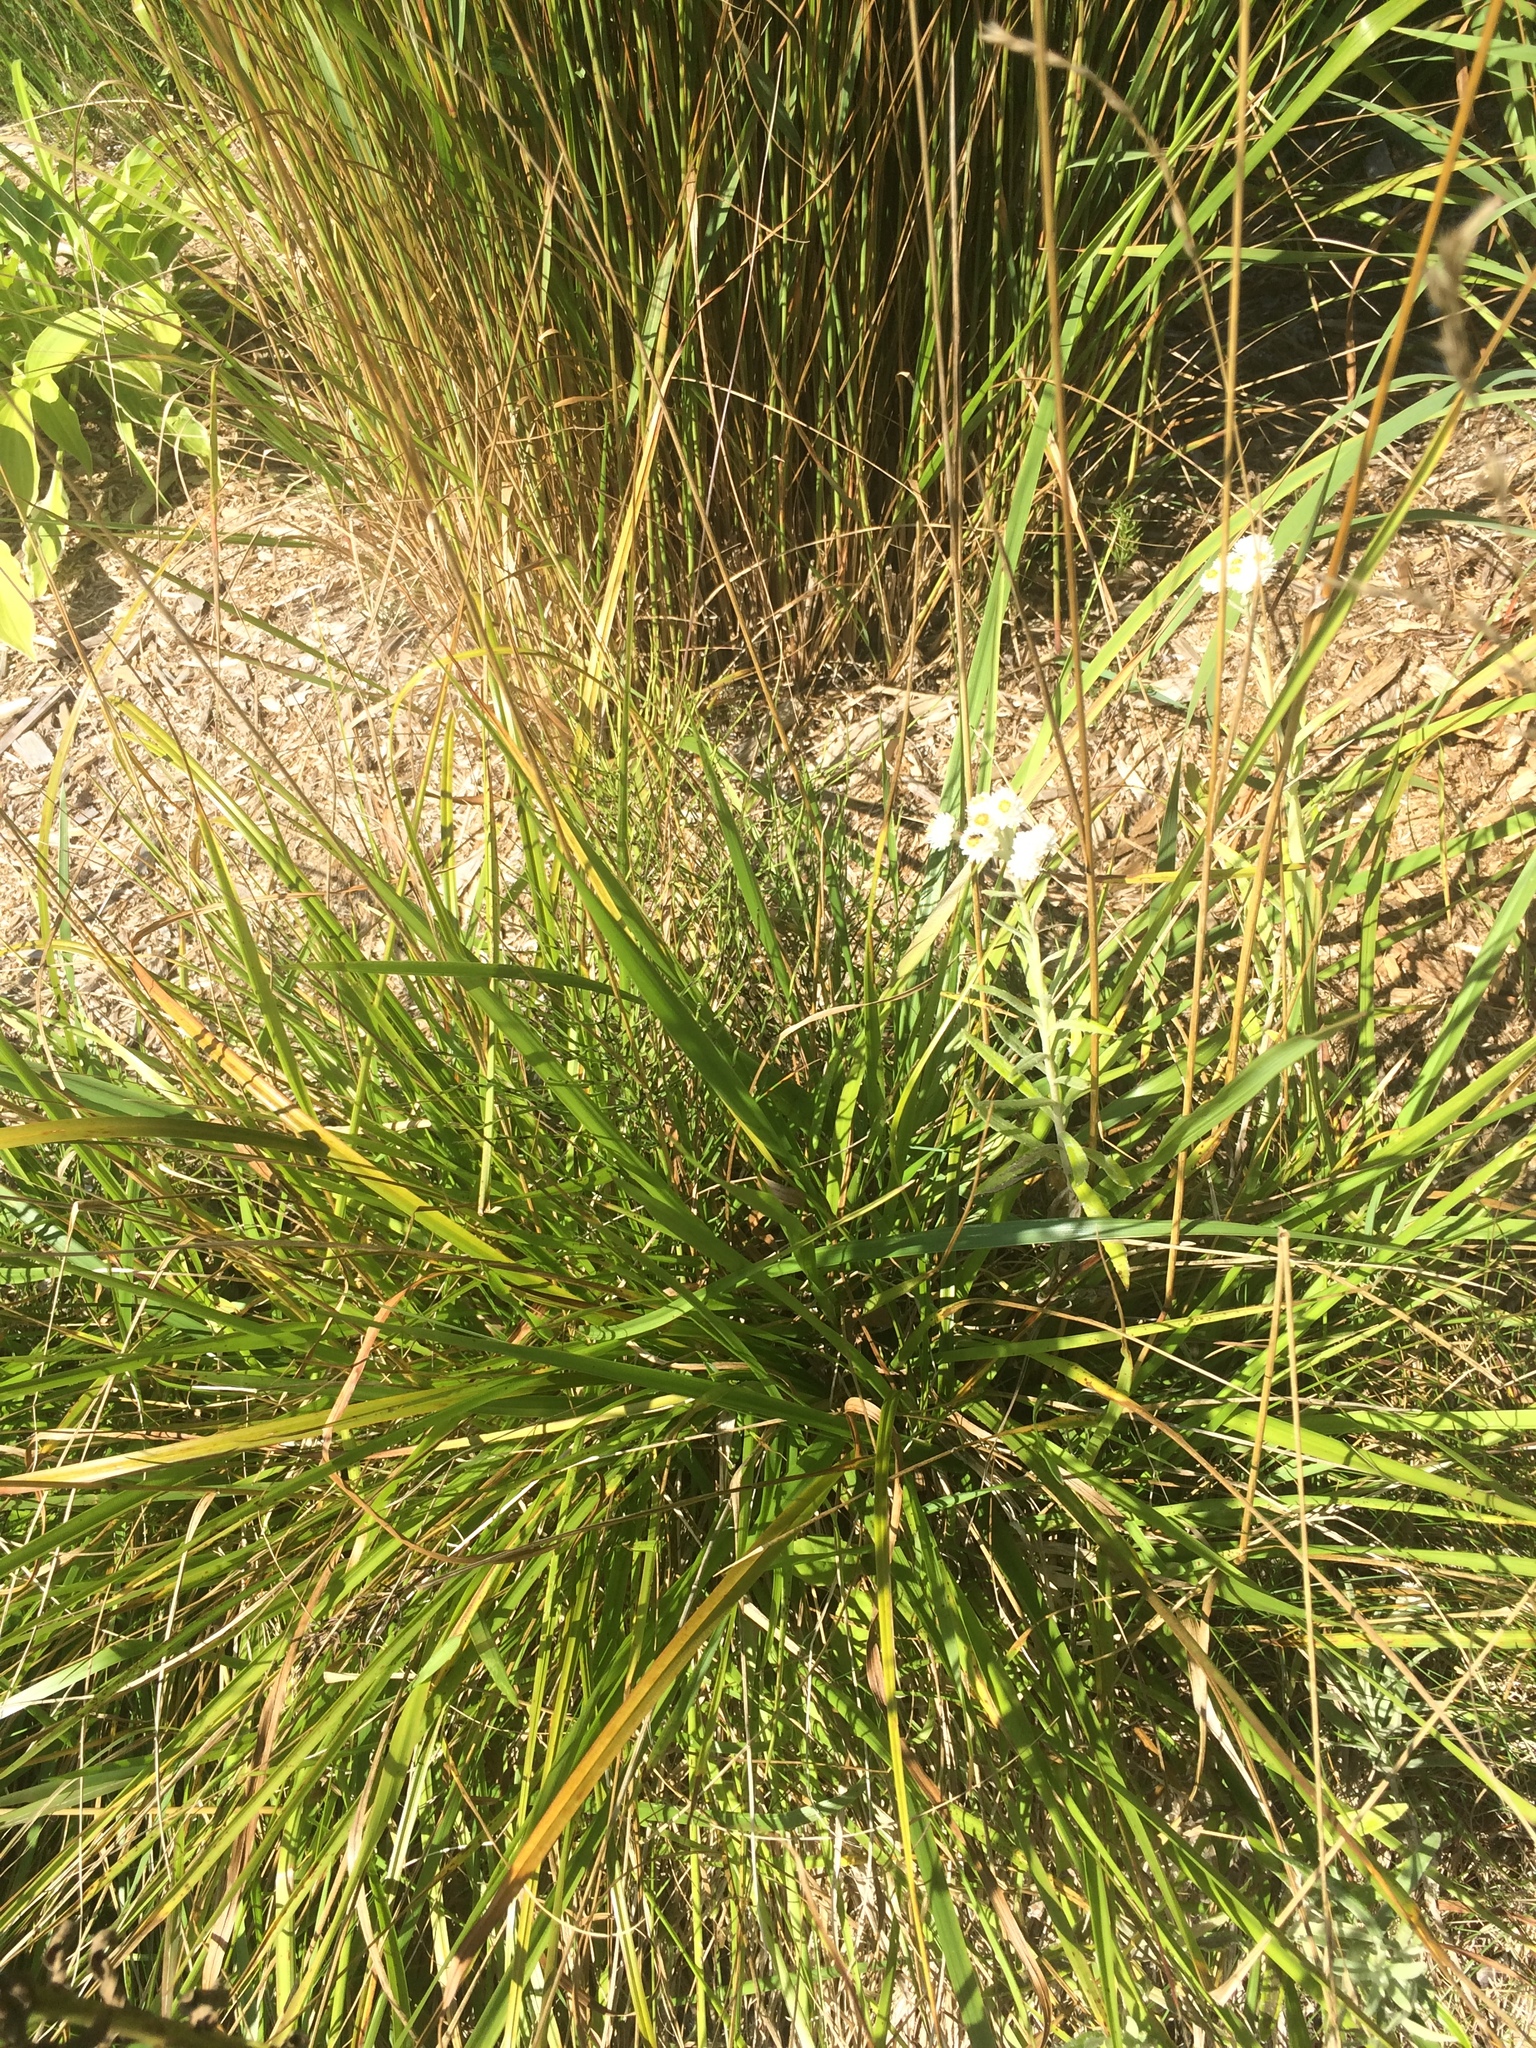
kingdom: Plantae
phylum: Tracheophyta
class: Liliopsida
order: Poales
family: Poaceae
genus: Lolium
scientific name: Lolium arundinaceum
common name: Reed fescue
